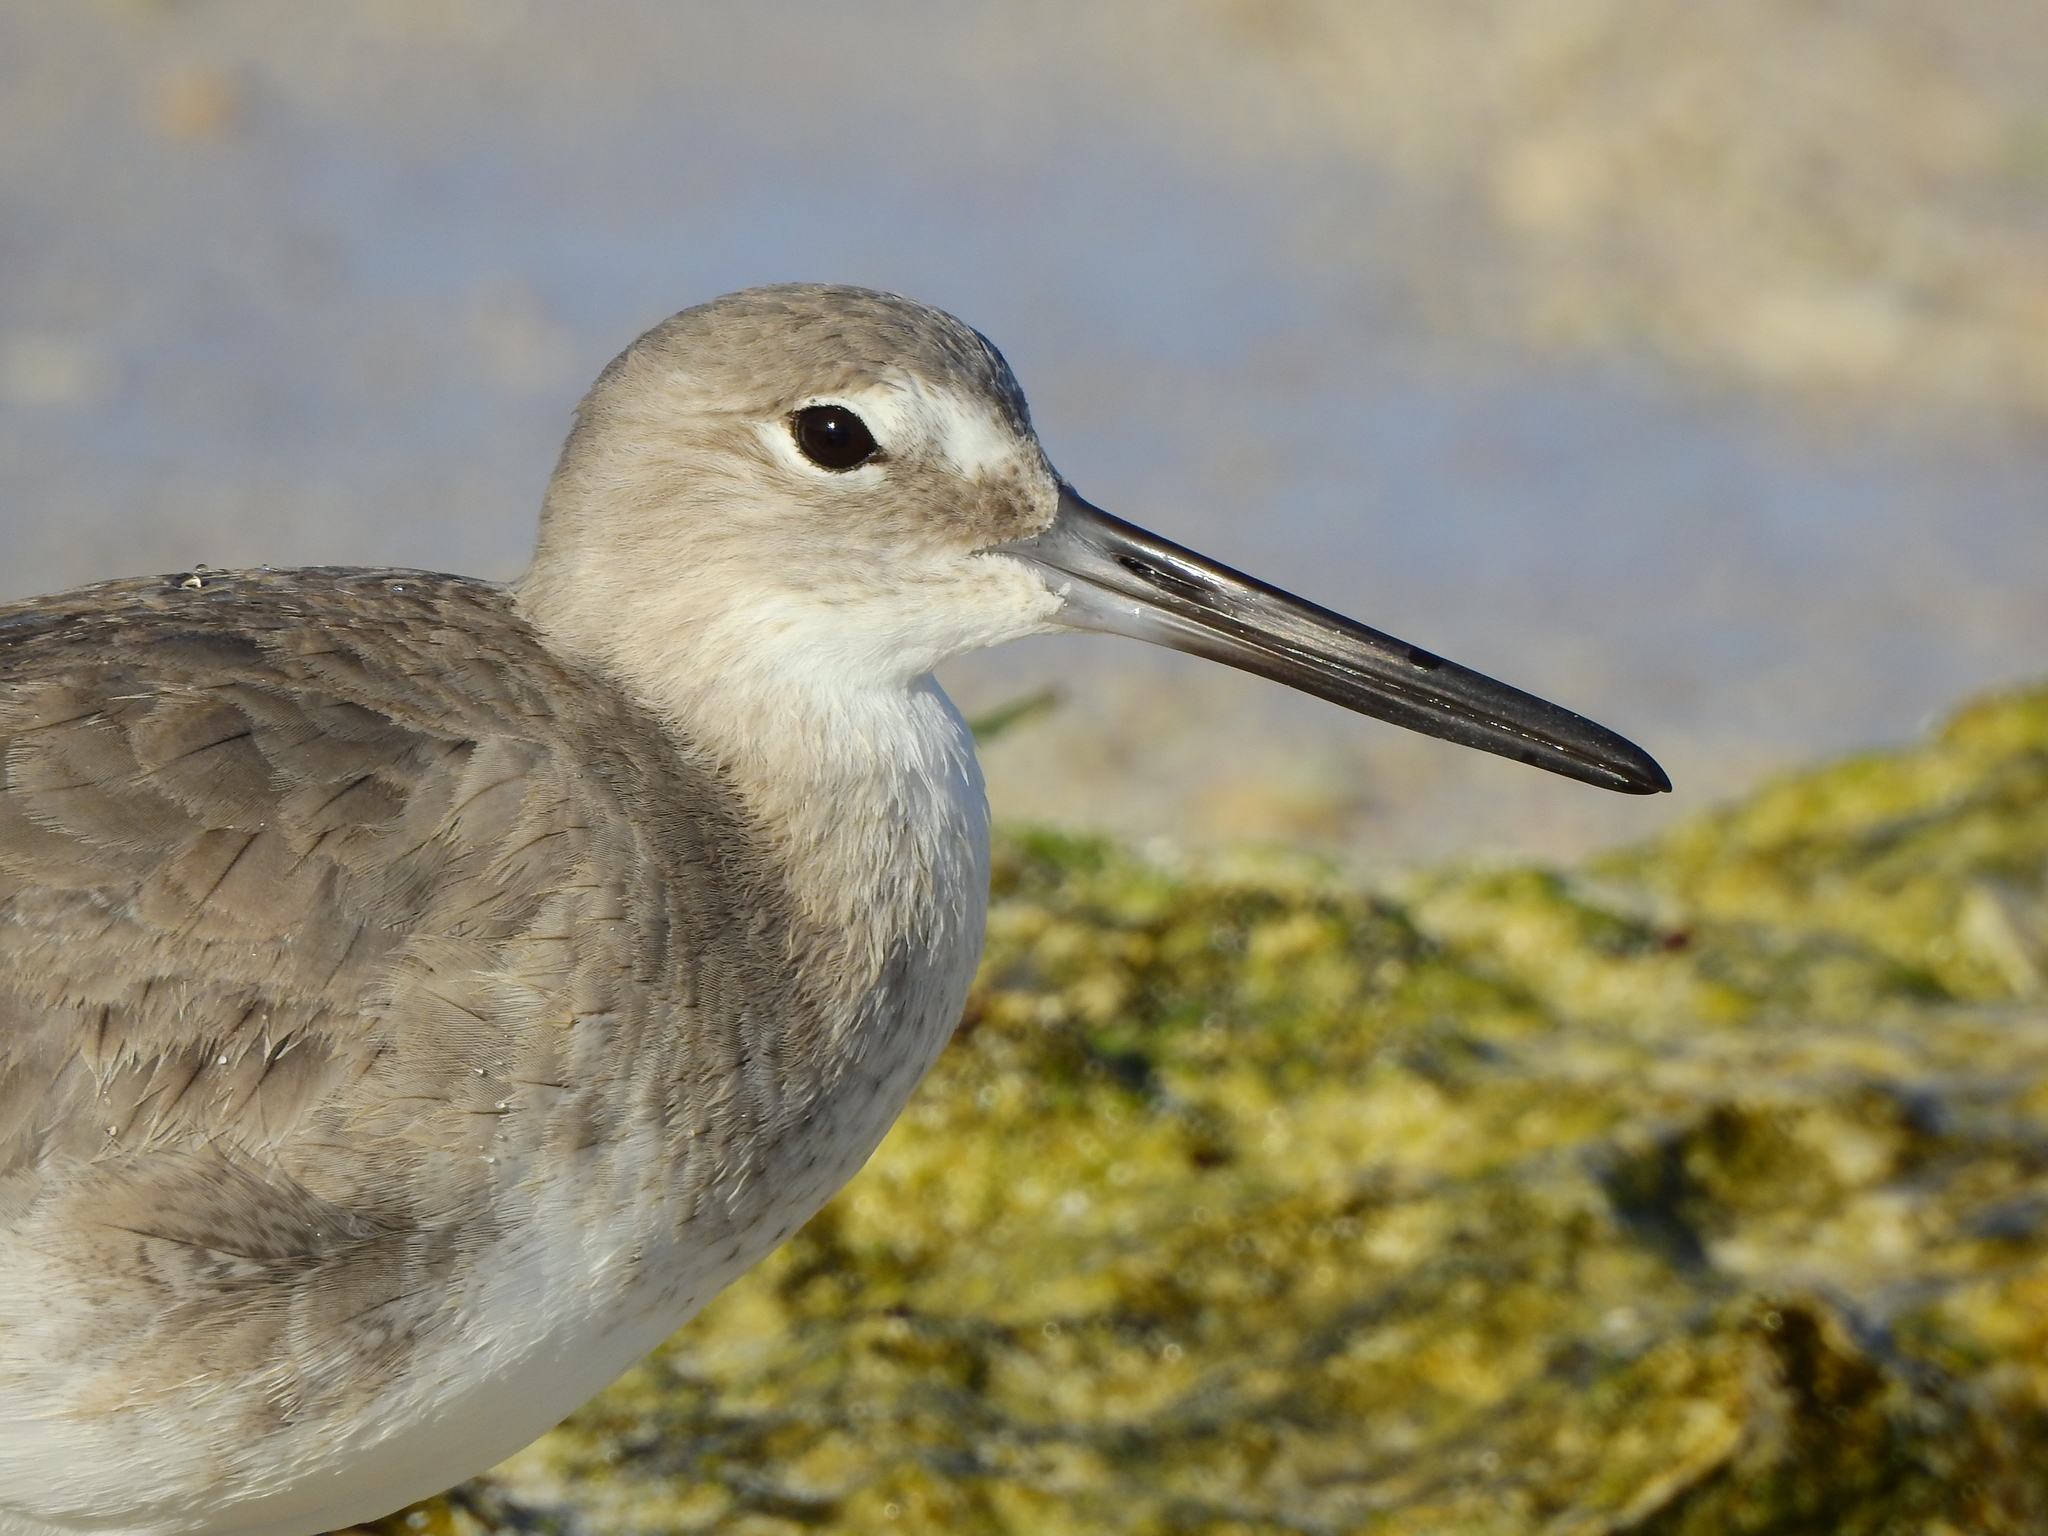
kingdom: Animalia
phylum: Chordata
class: Aves
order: Charadriiformes
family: Scolopacidae
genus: Tringa
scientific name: Tringa semipalmata
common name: Willet
